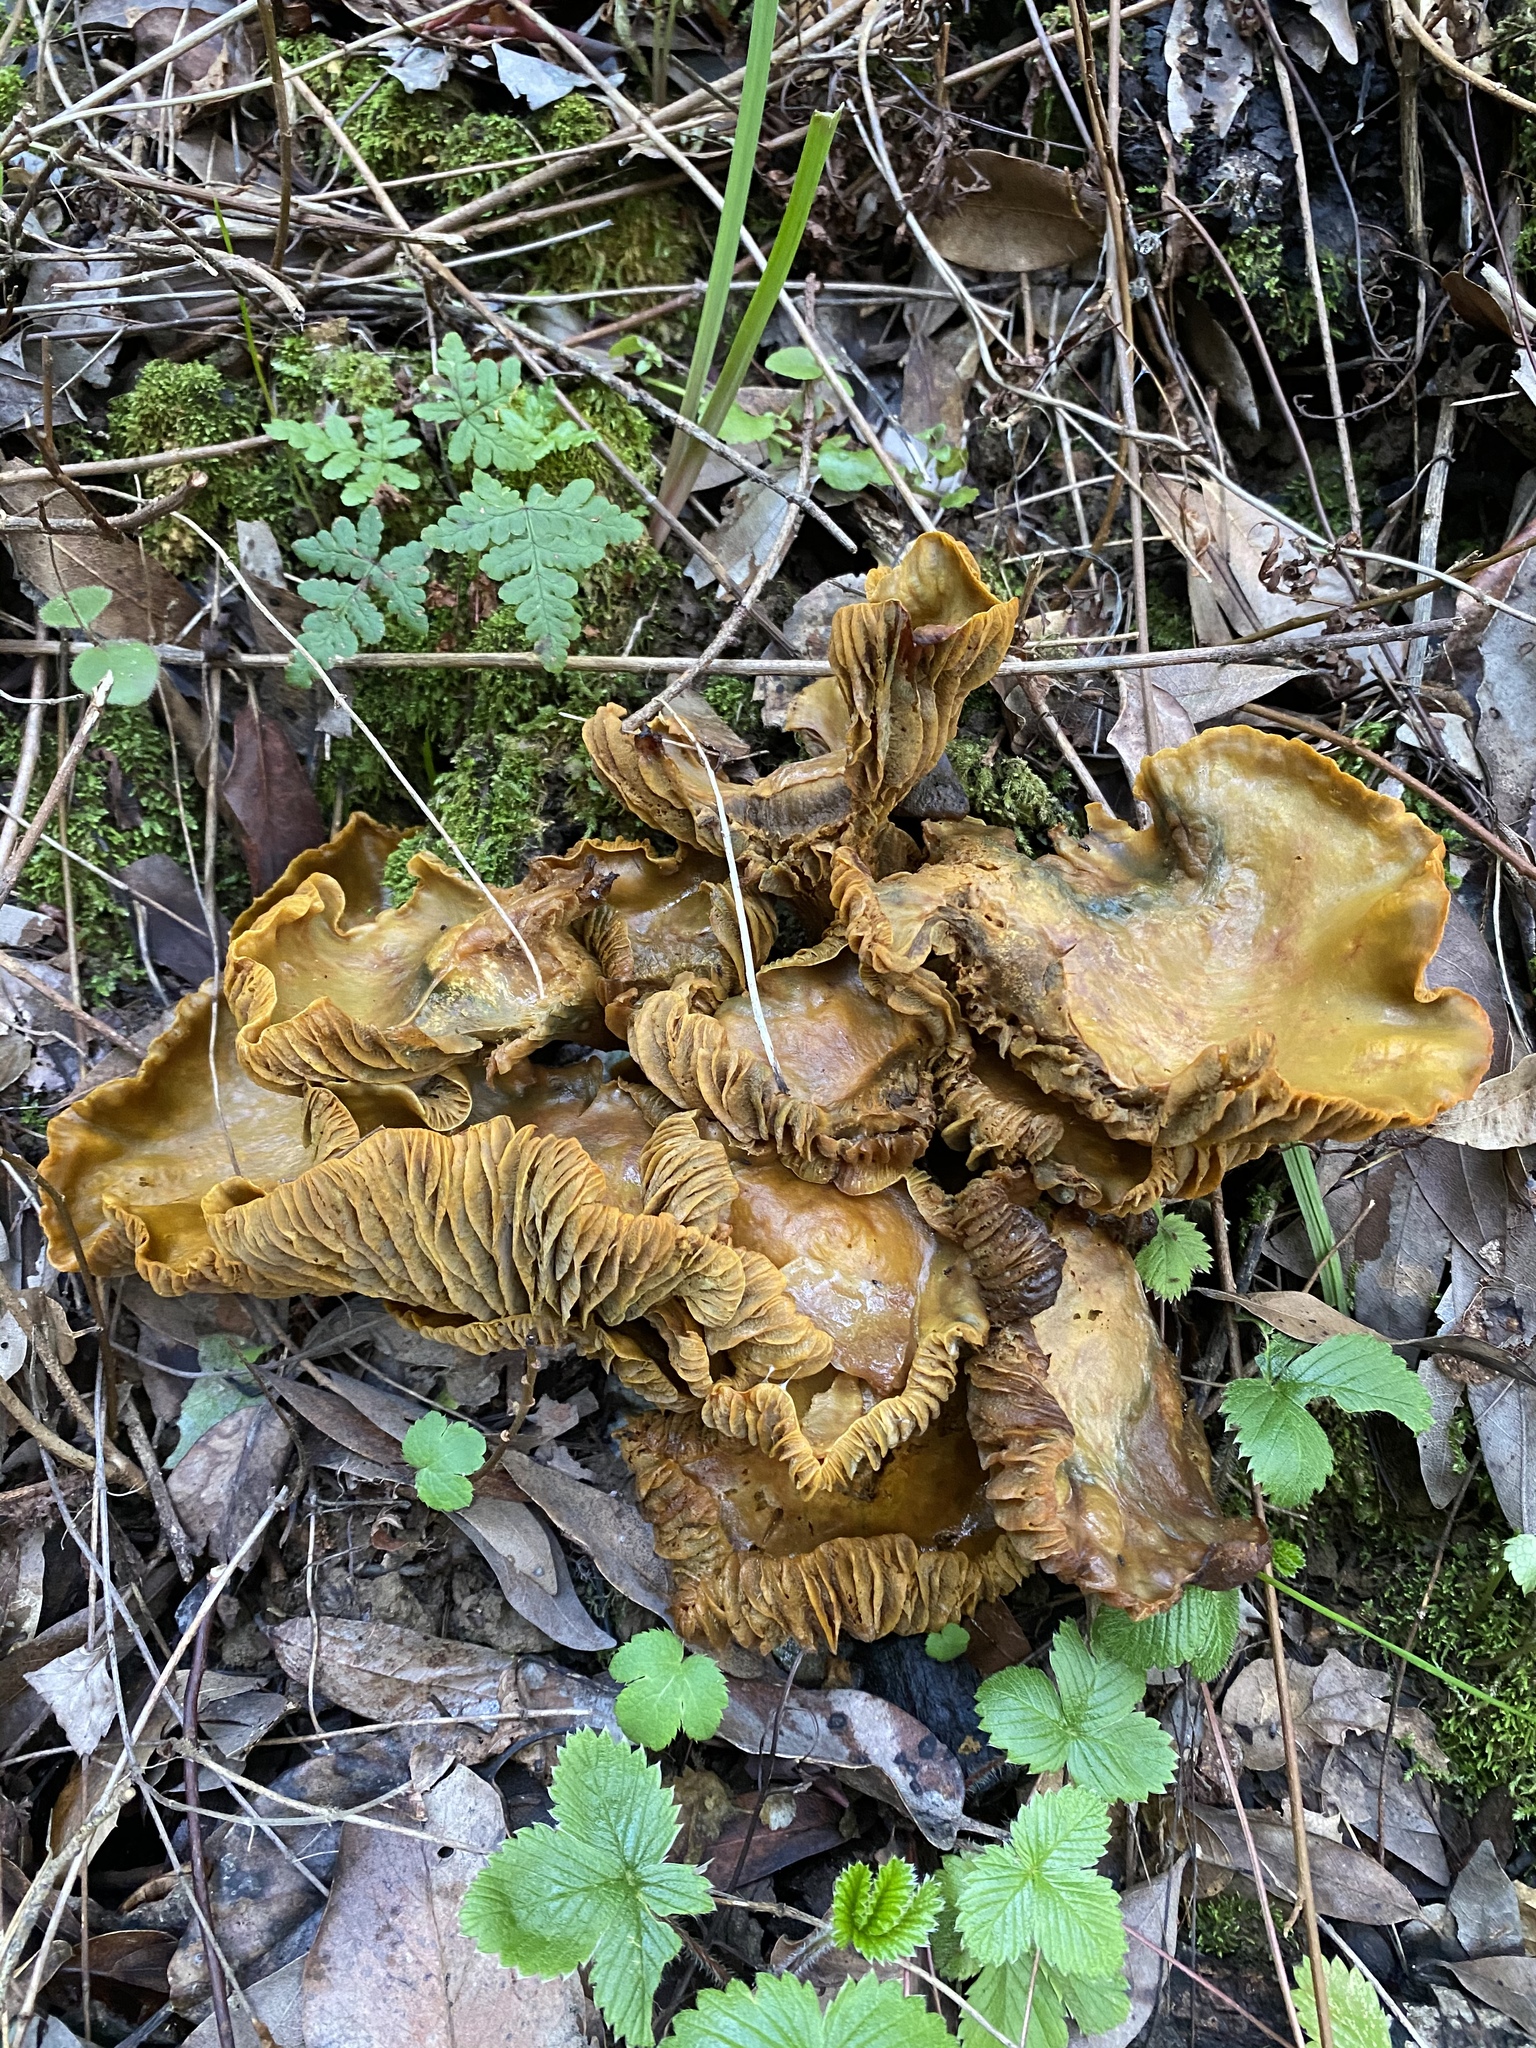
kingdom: Fungi
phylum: Basidiomycota
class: Agaricomycetes
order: Agaricales
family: Omphalotaceae
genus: Omphalotus
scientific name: Omphalotus olivascens
